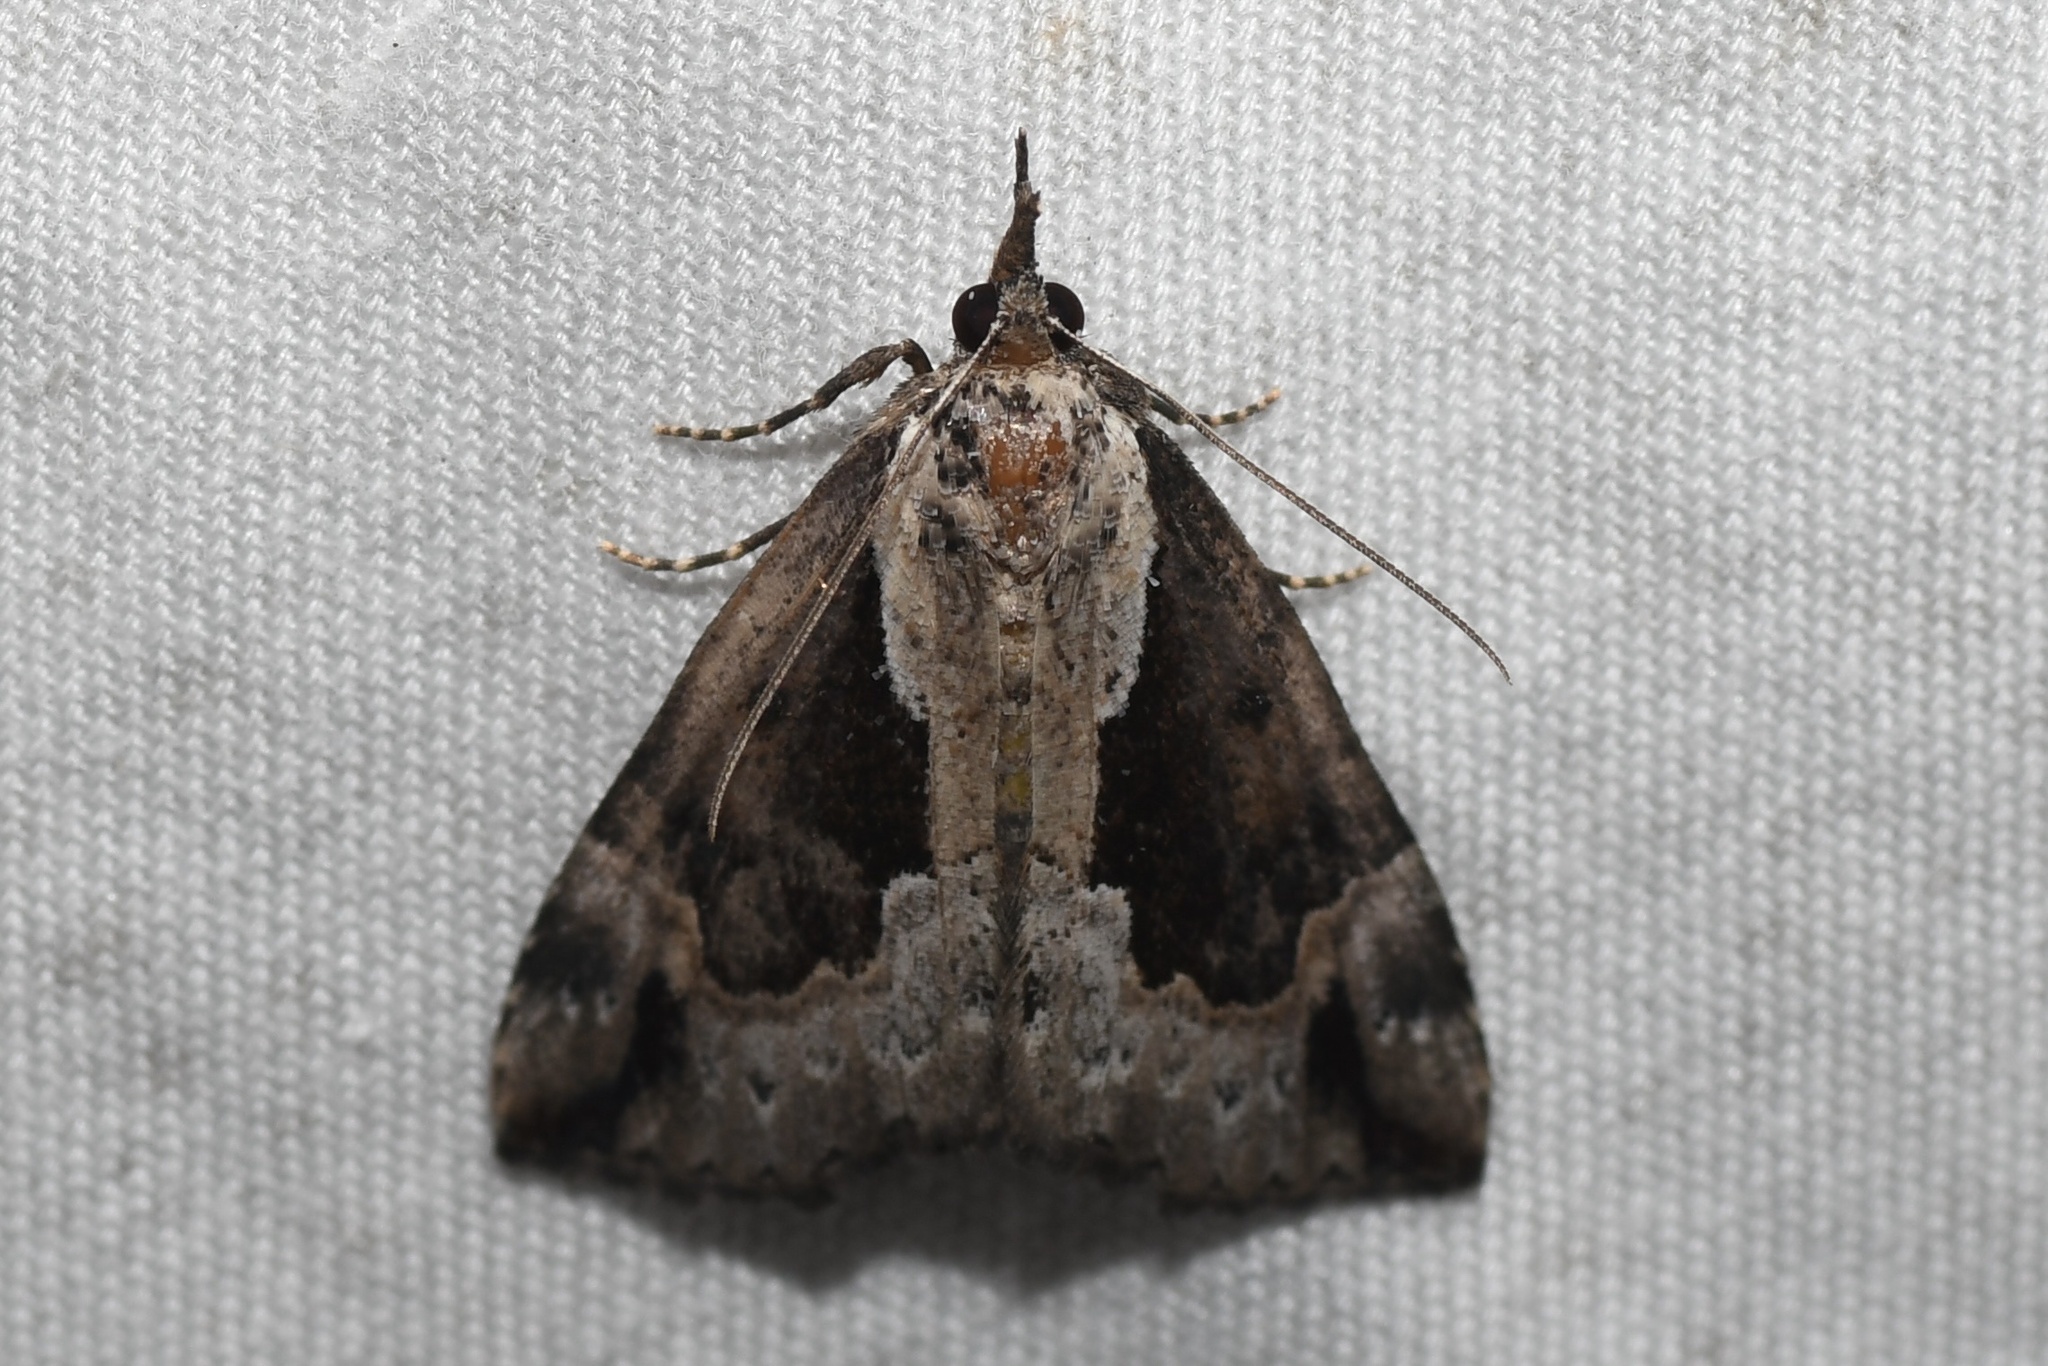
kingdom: Animalia
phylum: Arthropoda
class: Insecta
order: Lepidoptera
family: Erebidae
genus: Hypena
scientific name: Hypena baltimoralis
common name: Baltimore snout
